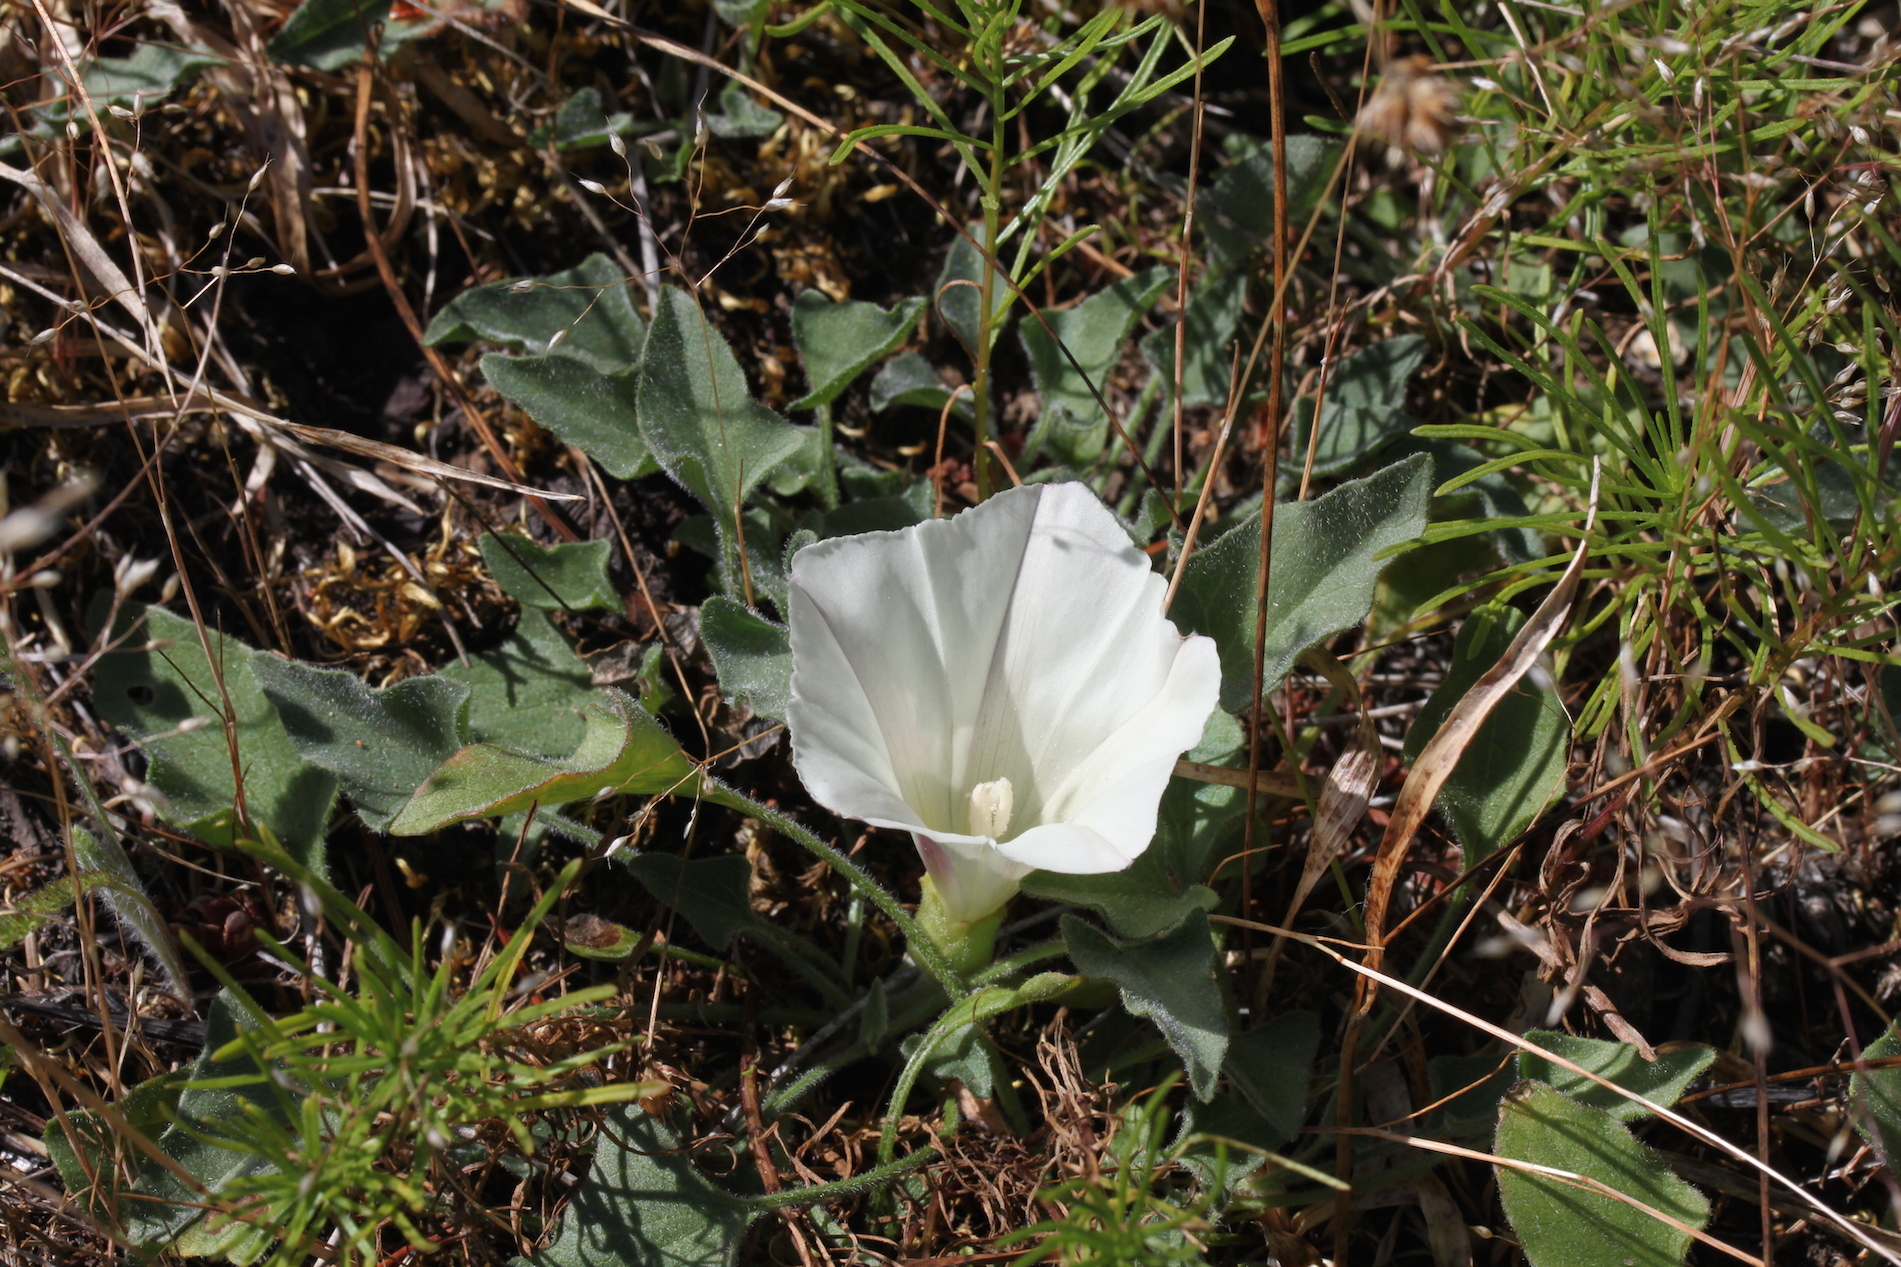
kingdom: Plantae
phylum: Tracheophyta
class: Magnoliopsida
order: Solanales
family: Convolvulaceae
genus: Calystegia
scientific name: Calystegia collina
